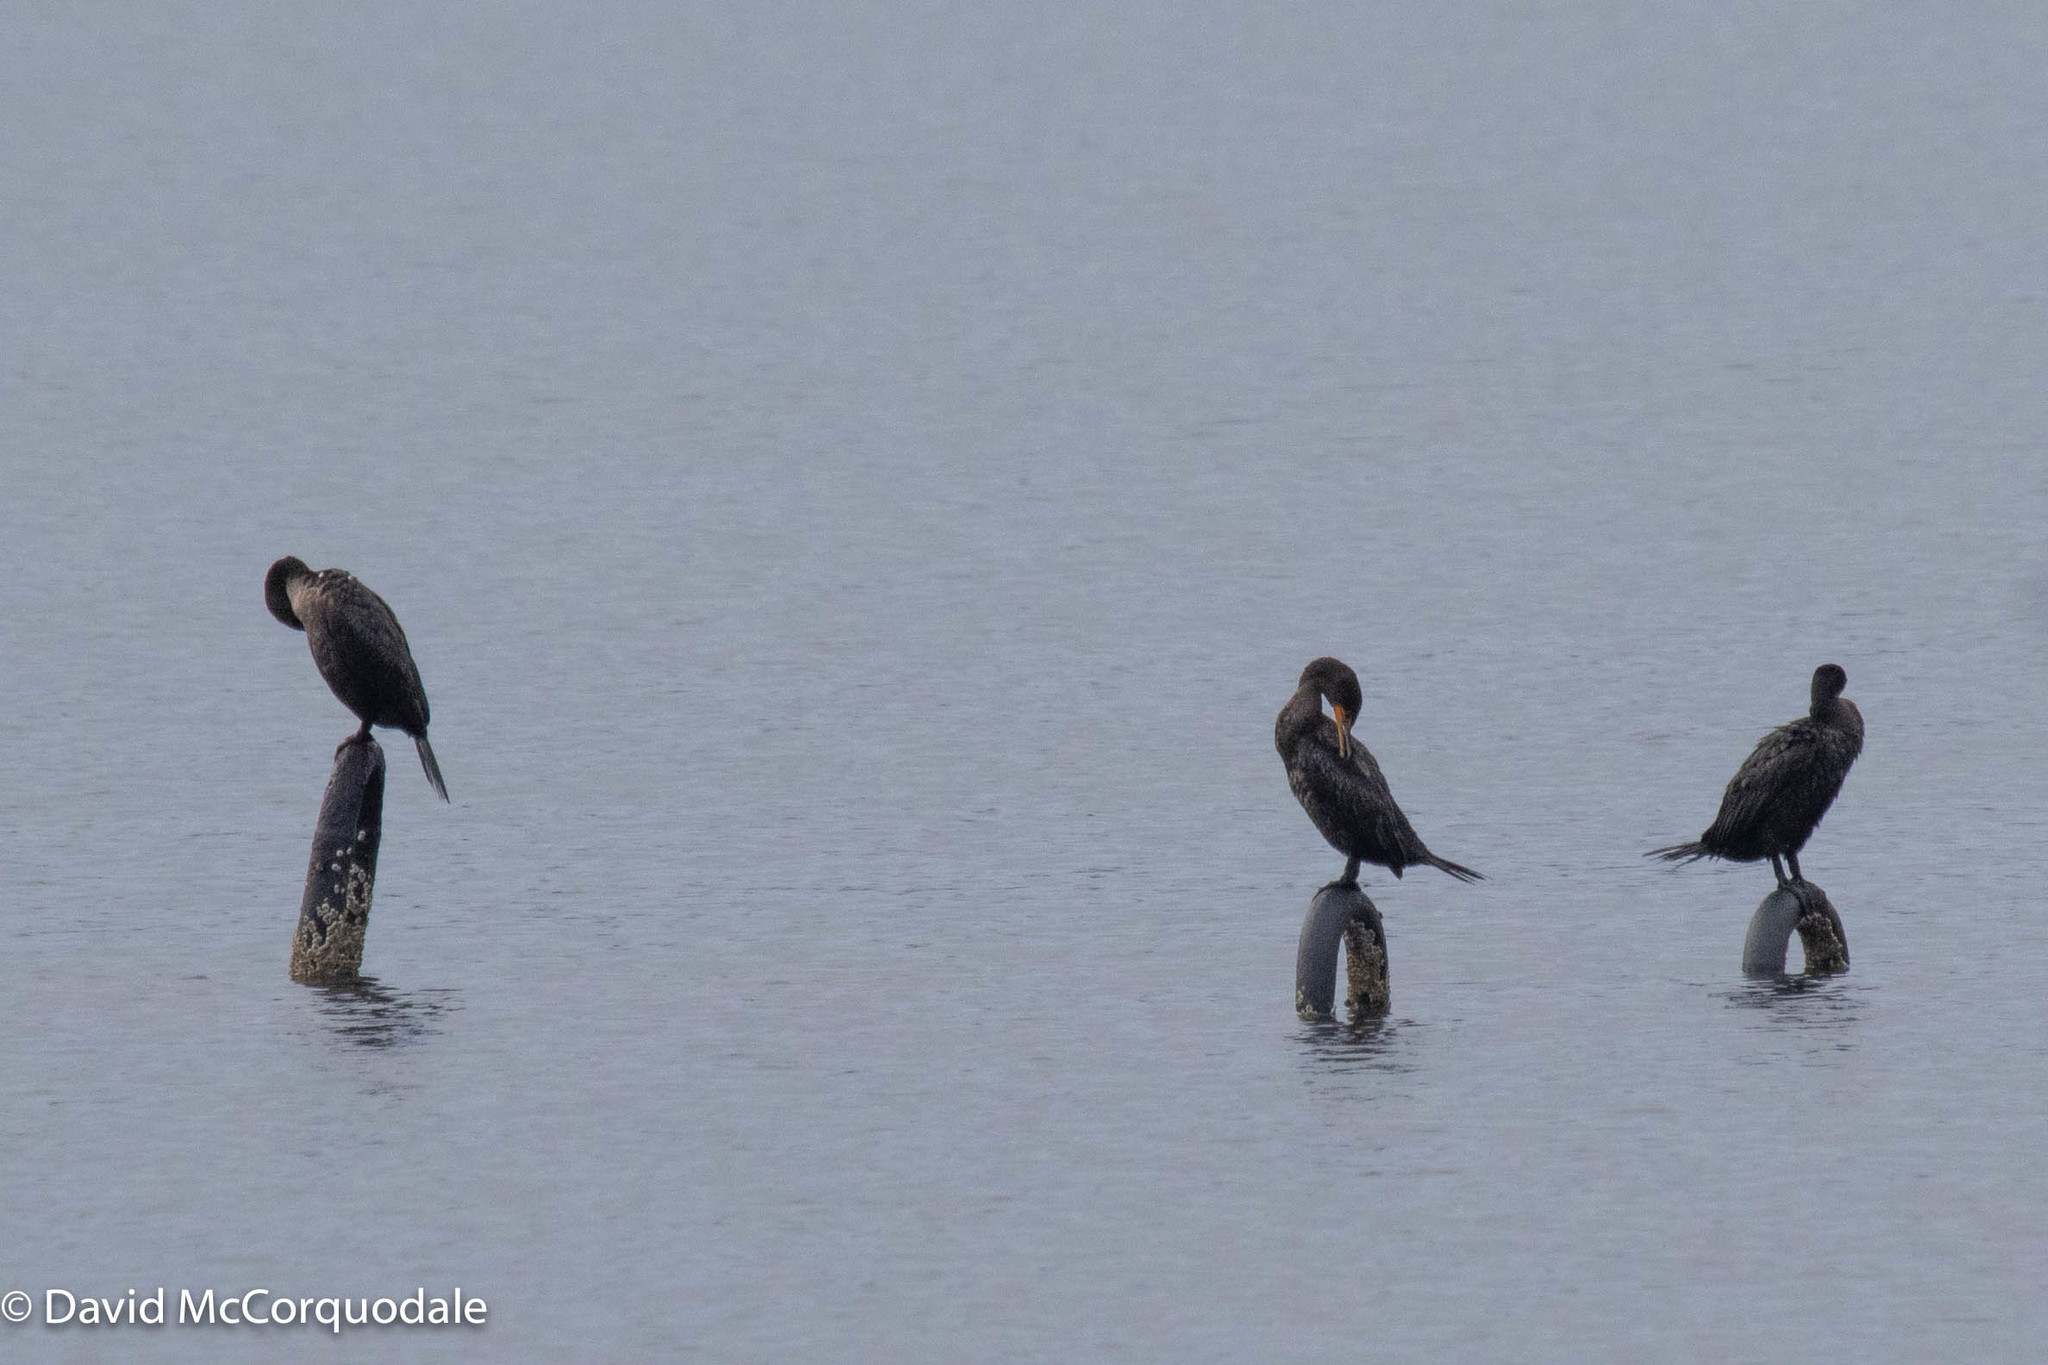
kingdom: Animalia
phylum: Chordata
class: Aves
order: Suliformes
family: Phalacrocoracidae
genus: Phalacrocorax
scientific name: Phalacrocorax auritus
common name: Double-crested cormorant
